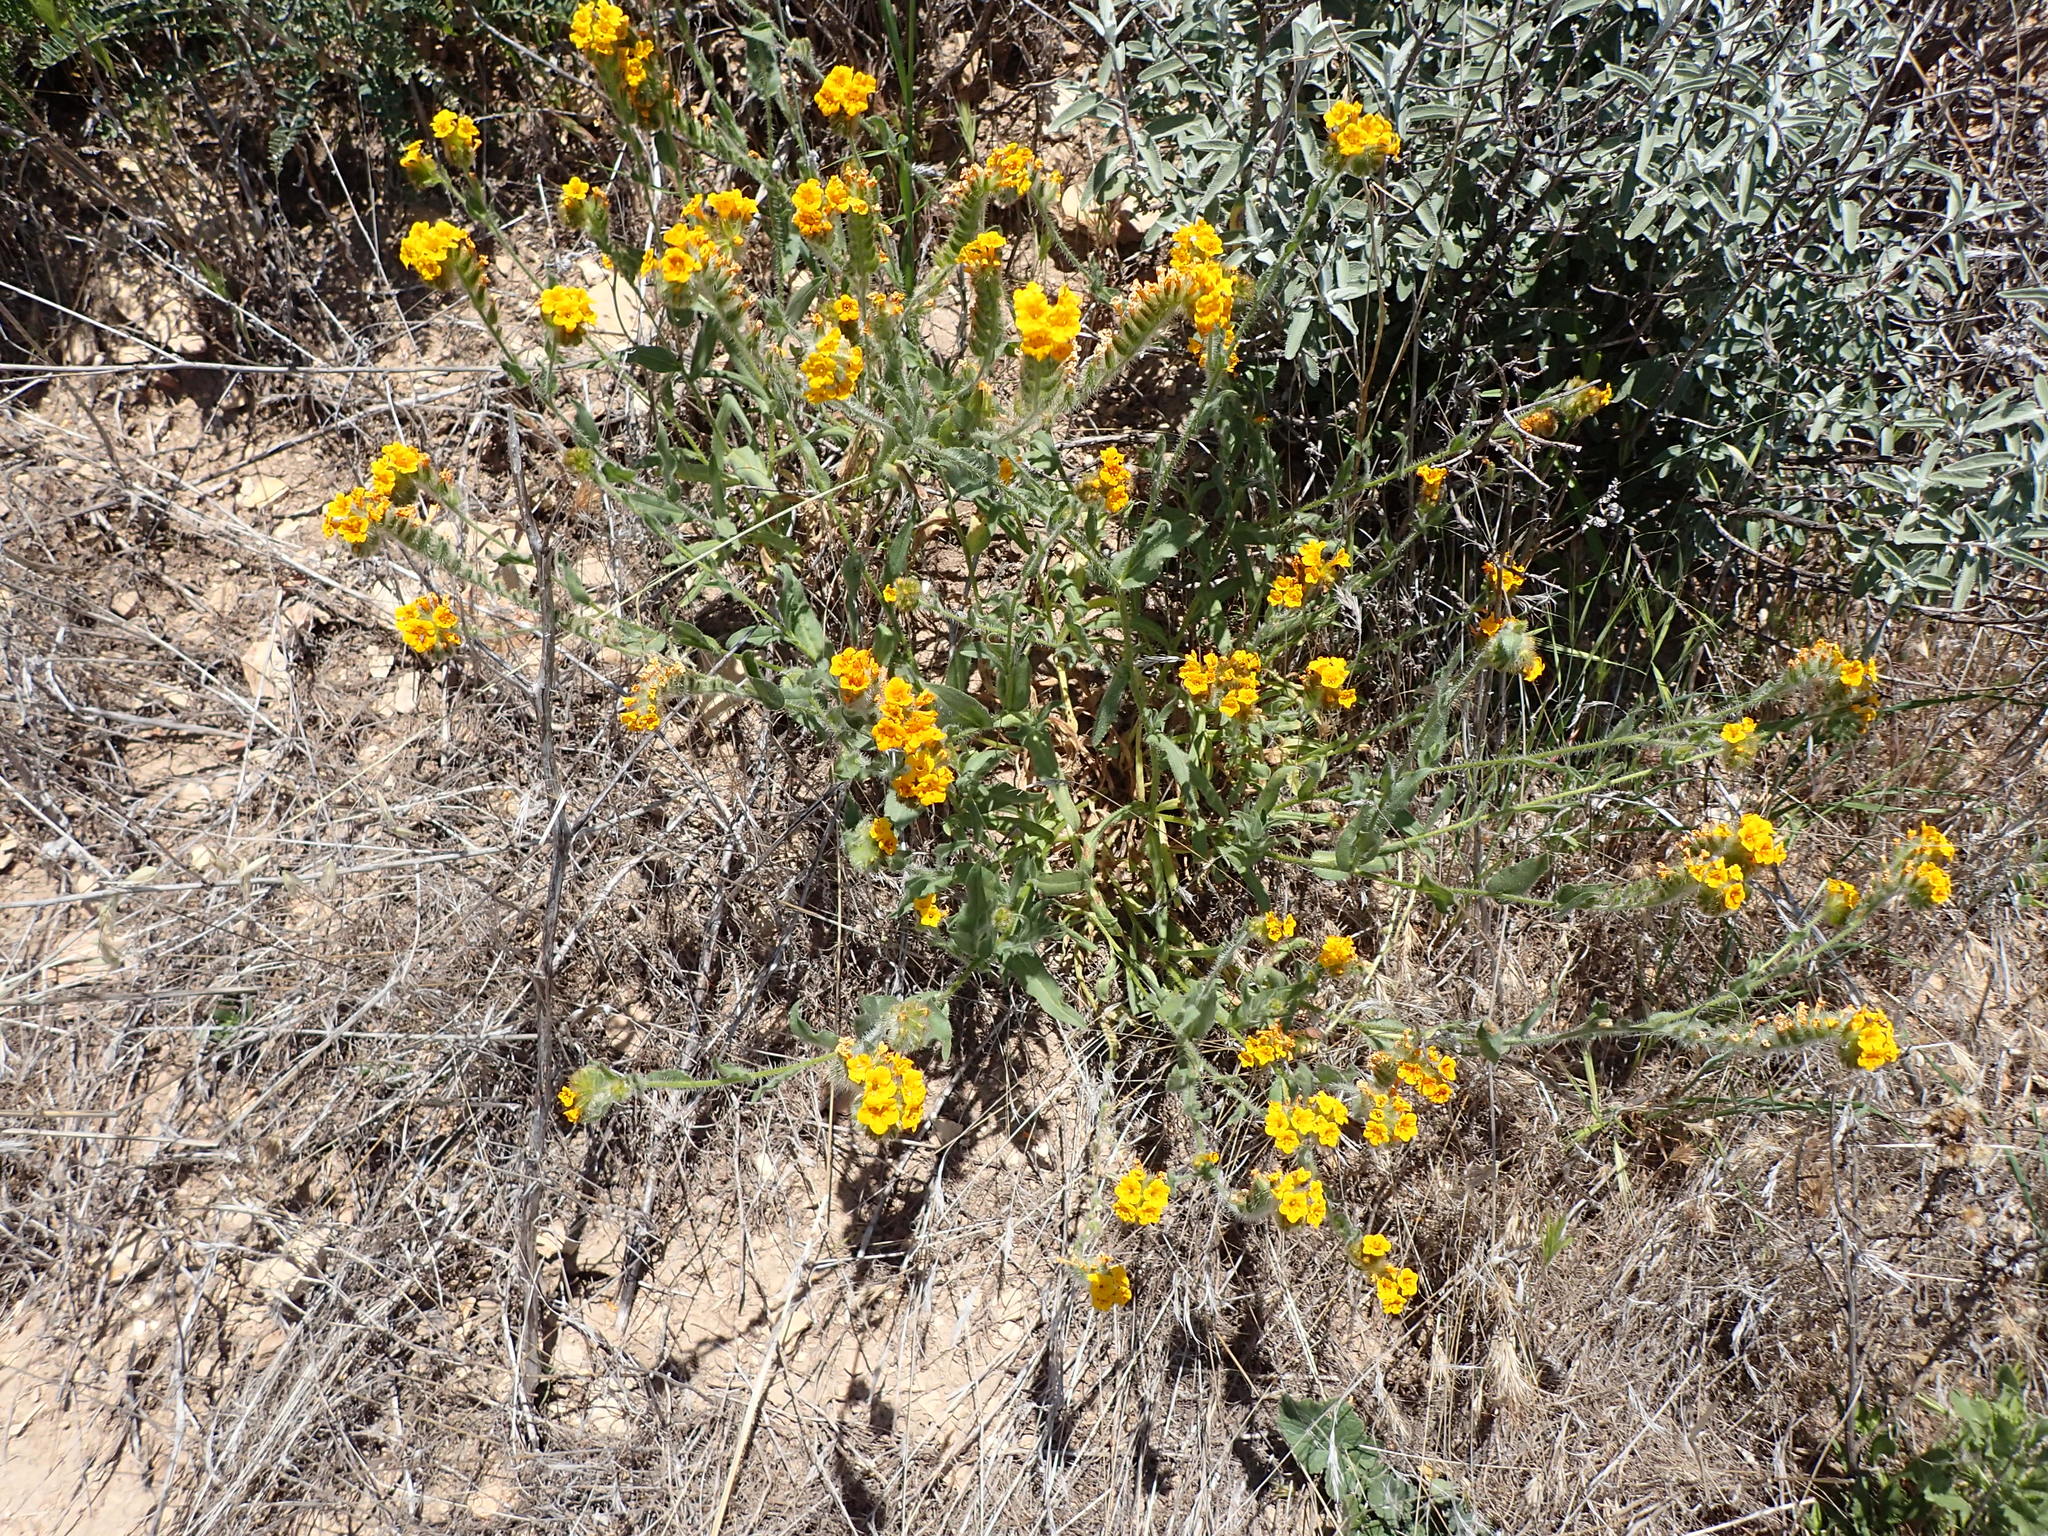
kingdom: Plantae
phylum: Tracheophyta
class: Magnoliopsida
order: Boraginales
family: Boraginaceae
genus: Amsinckia
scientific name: Amsinckia douglasiana
